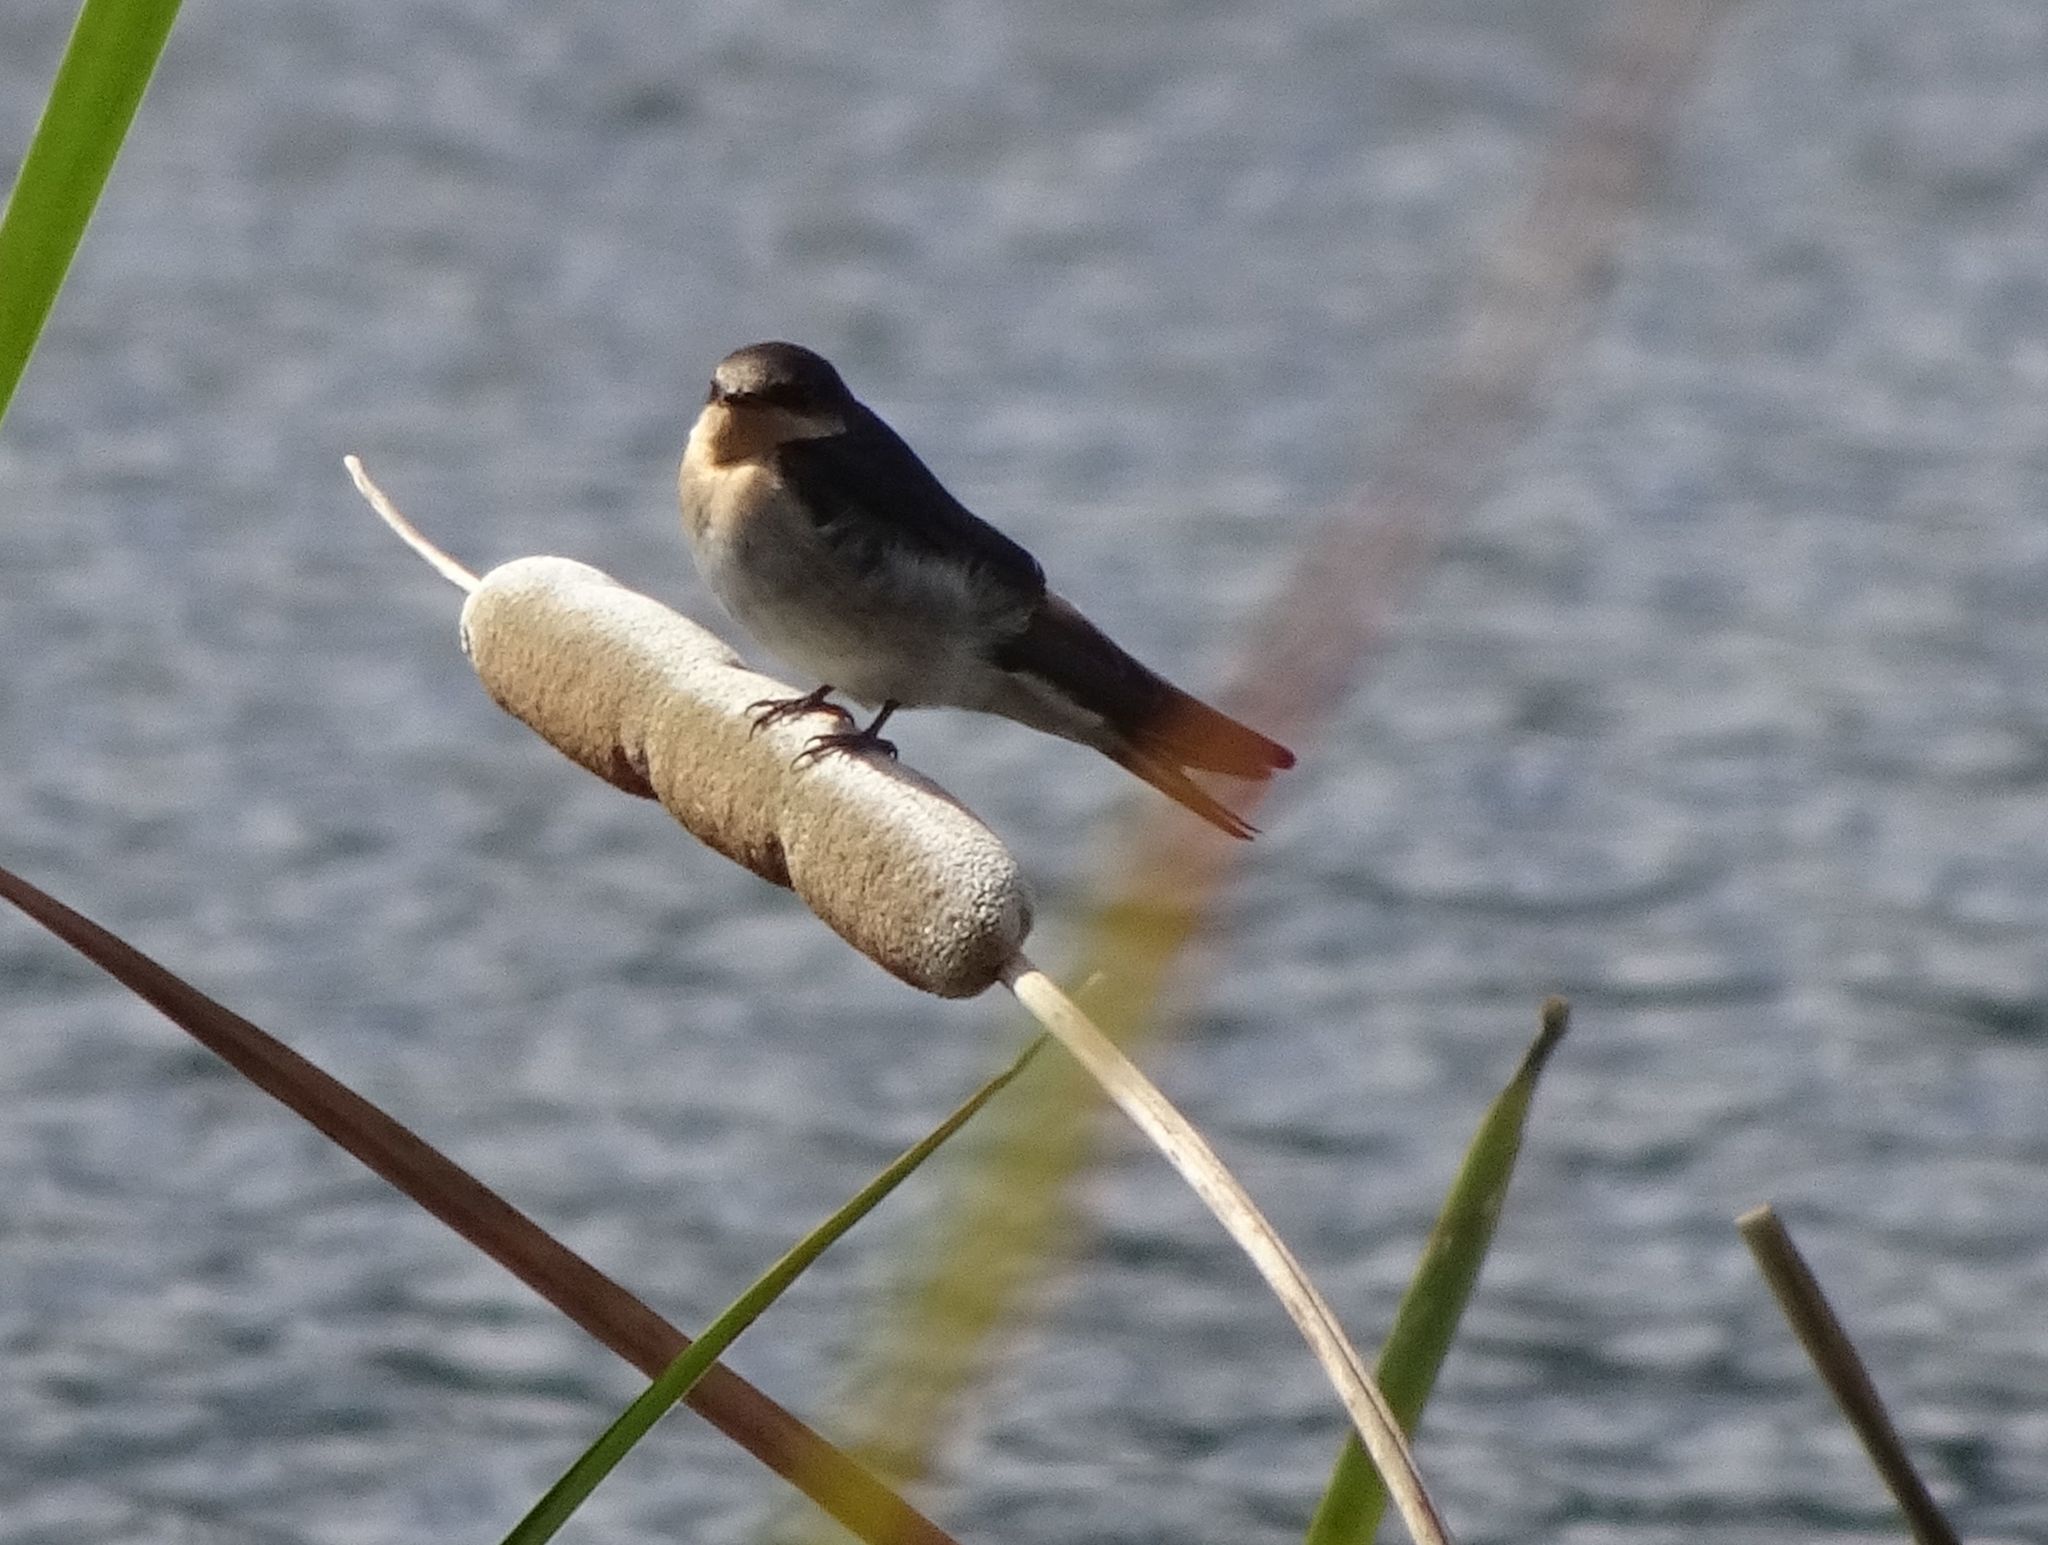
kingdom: Animalia
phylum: Chordata
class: Aves
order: Passeriformes
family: Hirundinidae
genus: Hirundo
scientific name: Hirundo neoxena
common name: Welcome swallow
